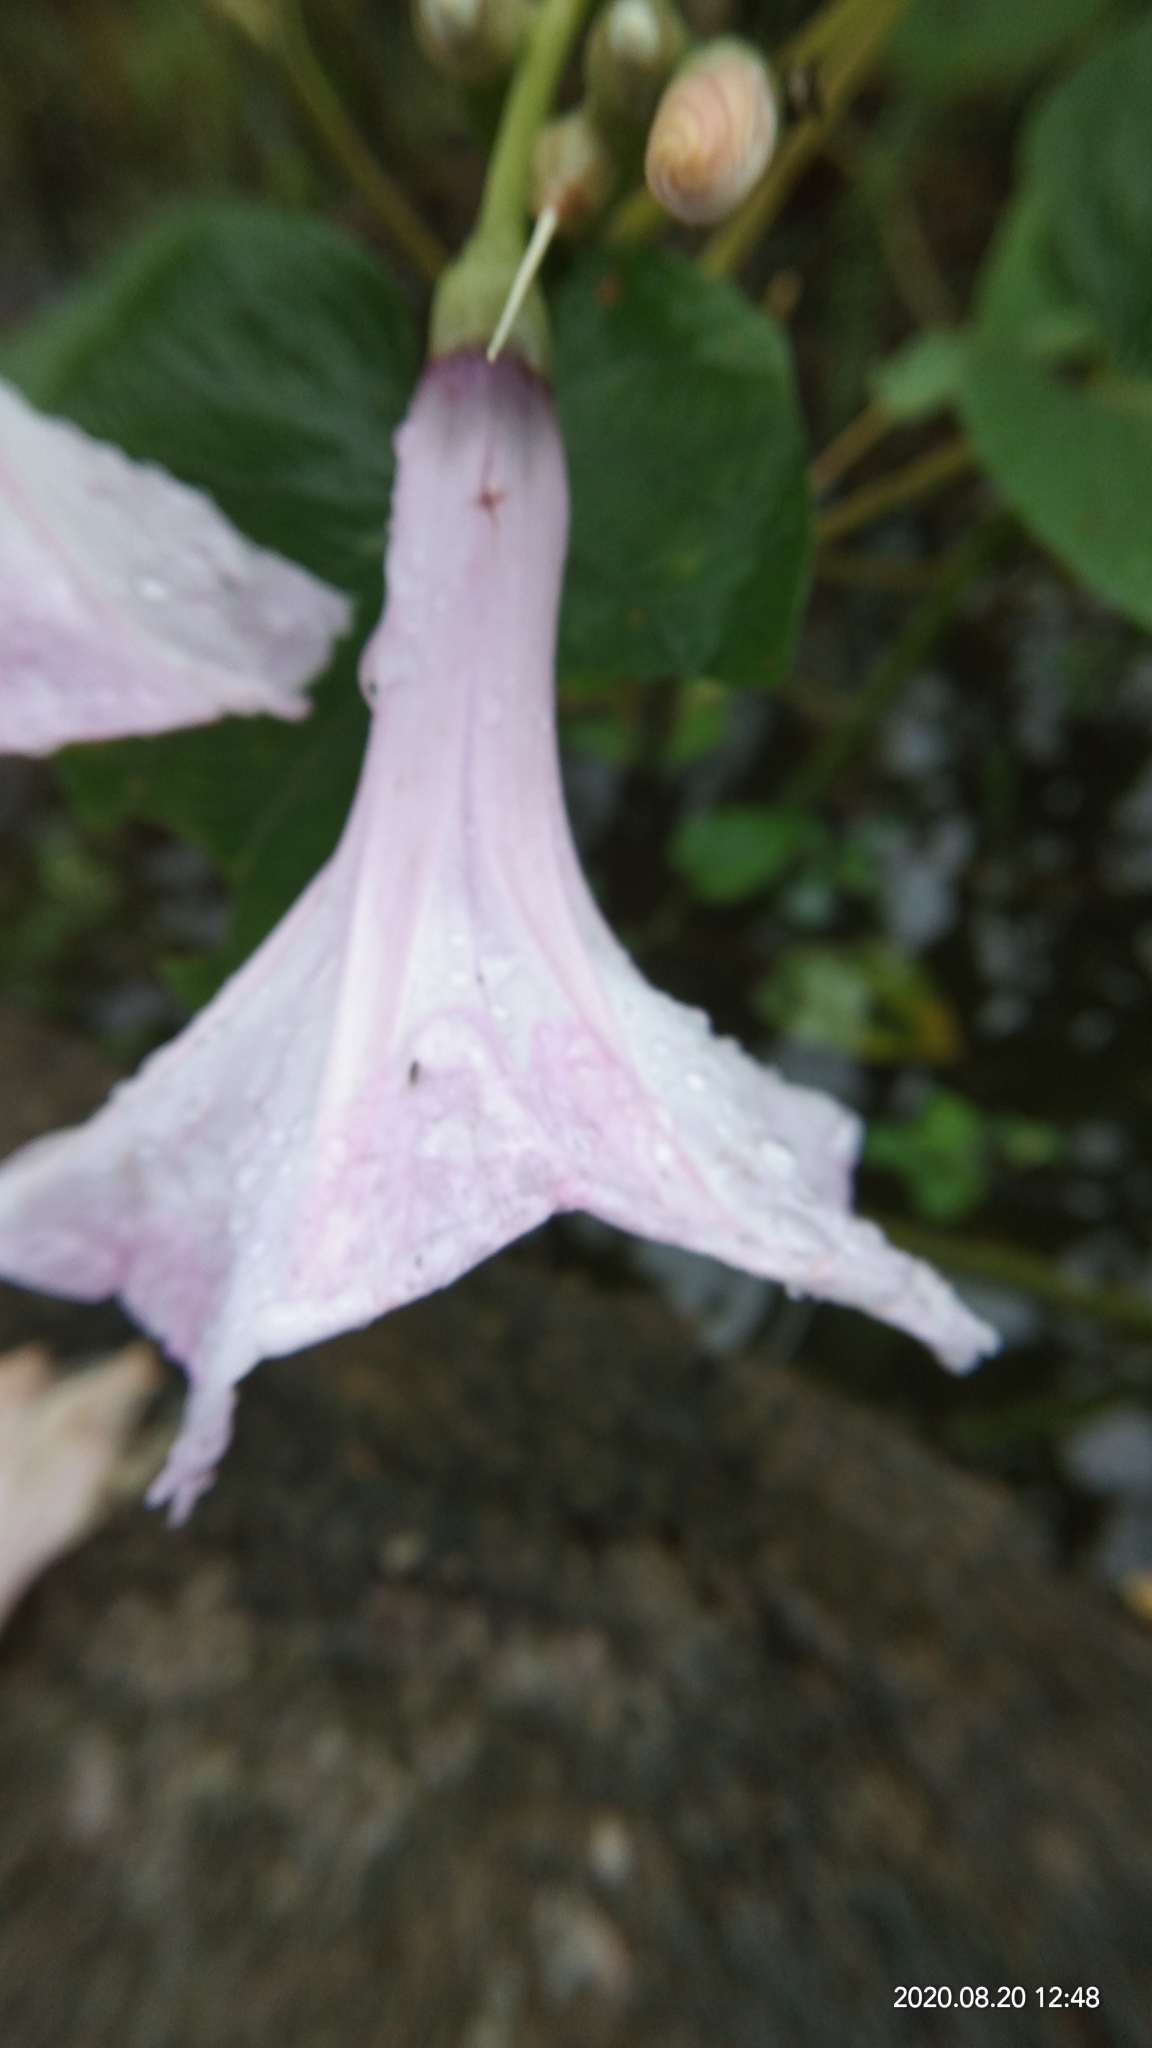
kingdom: Plantae
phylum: Tracheophyta
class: Magnoliopsida
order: Solanales
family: Convolvulaceae
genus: Ipomoea
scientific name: Ipomoea carnea
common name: Morning-glory
